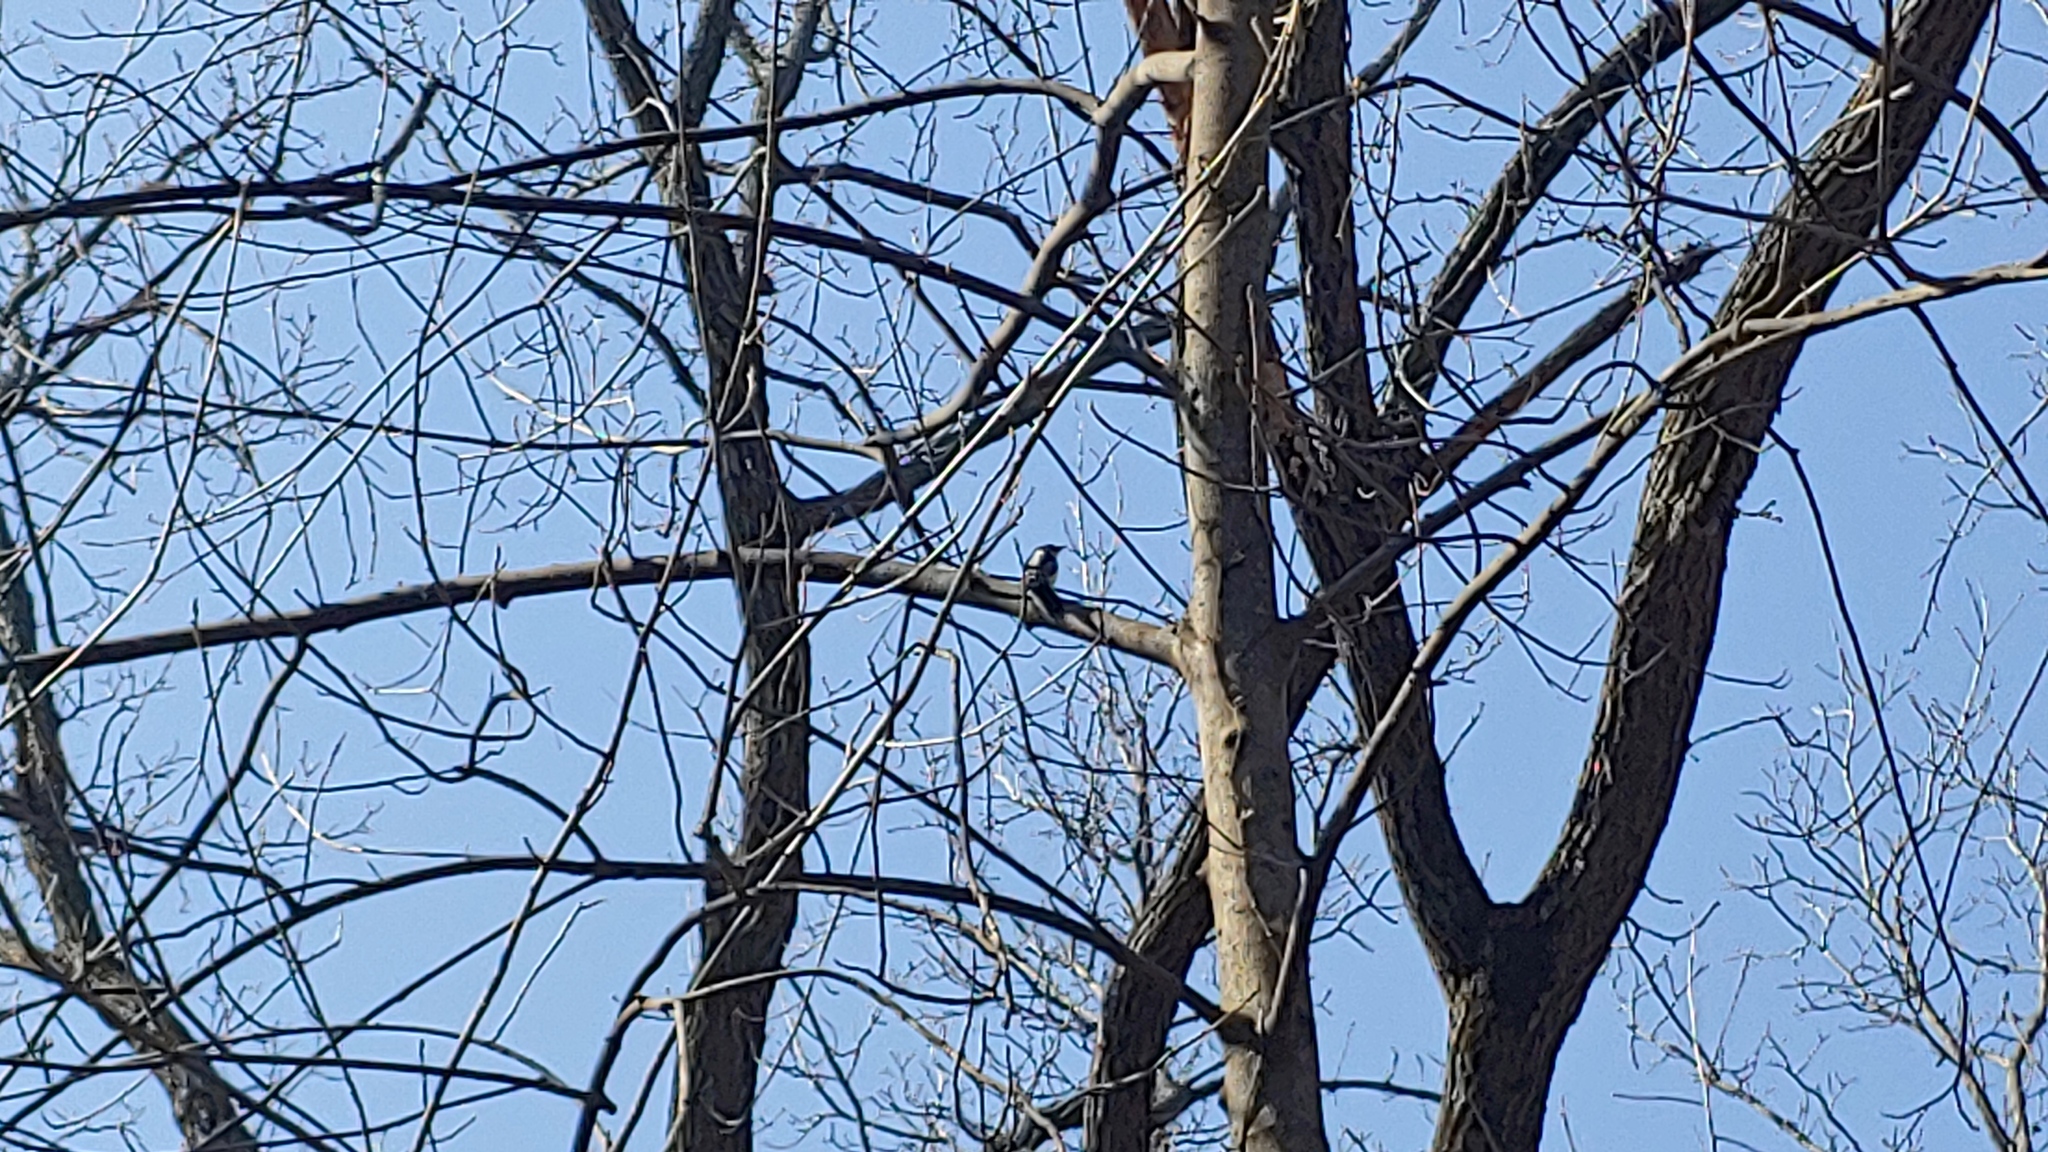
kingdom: Animalia
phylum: Chordata
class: Aves
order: Piciformes
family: Picidae
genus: Dryobates
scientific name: Dryobates pubescens
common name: Downy woodpecker
